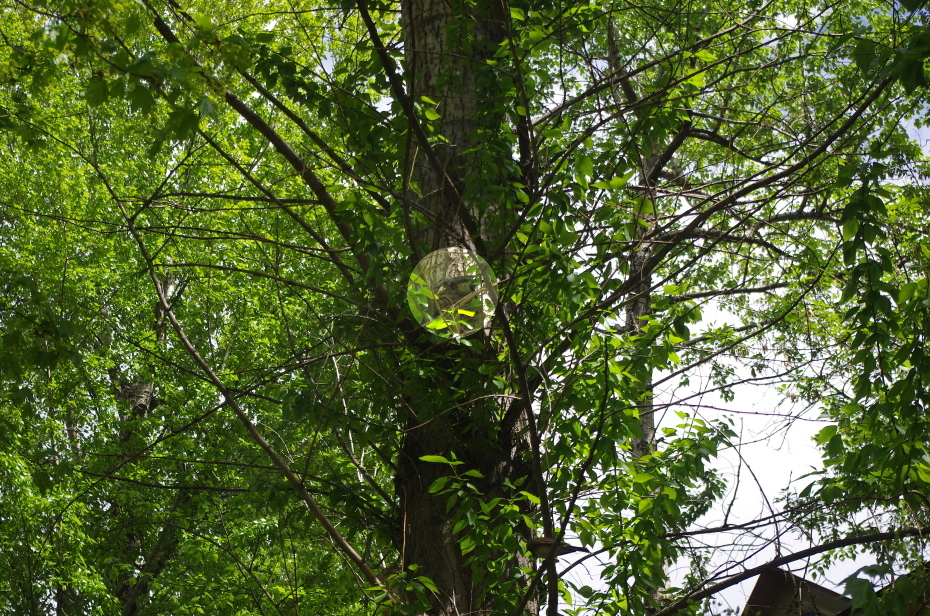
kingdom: Animalia
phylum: Chordata
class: Aves
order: Passeriformes
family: Turdidae
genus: Turdus
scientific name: Turdus pilaris
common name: Fieldfare
